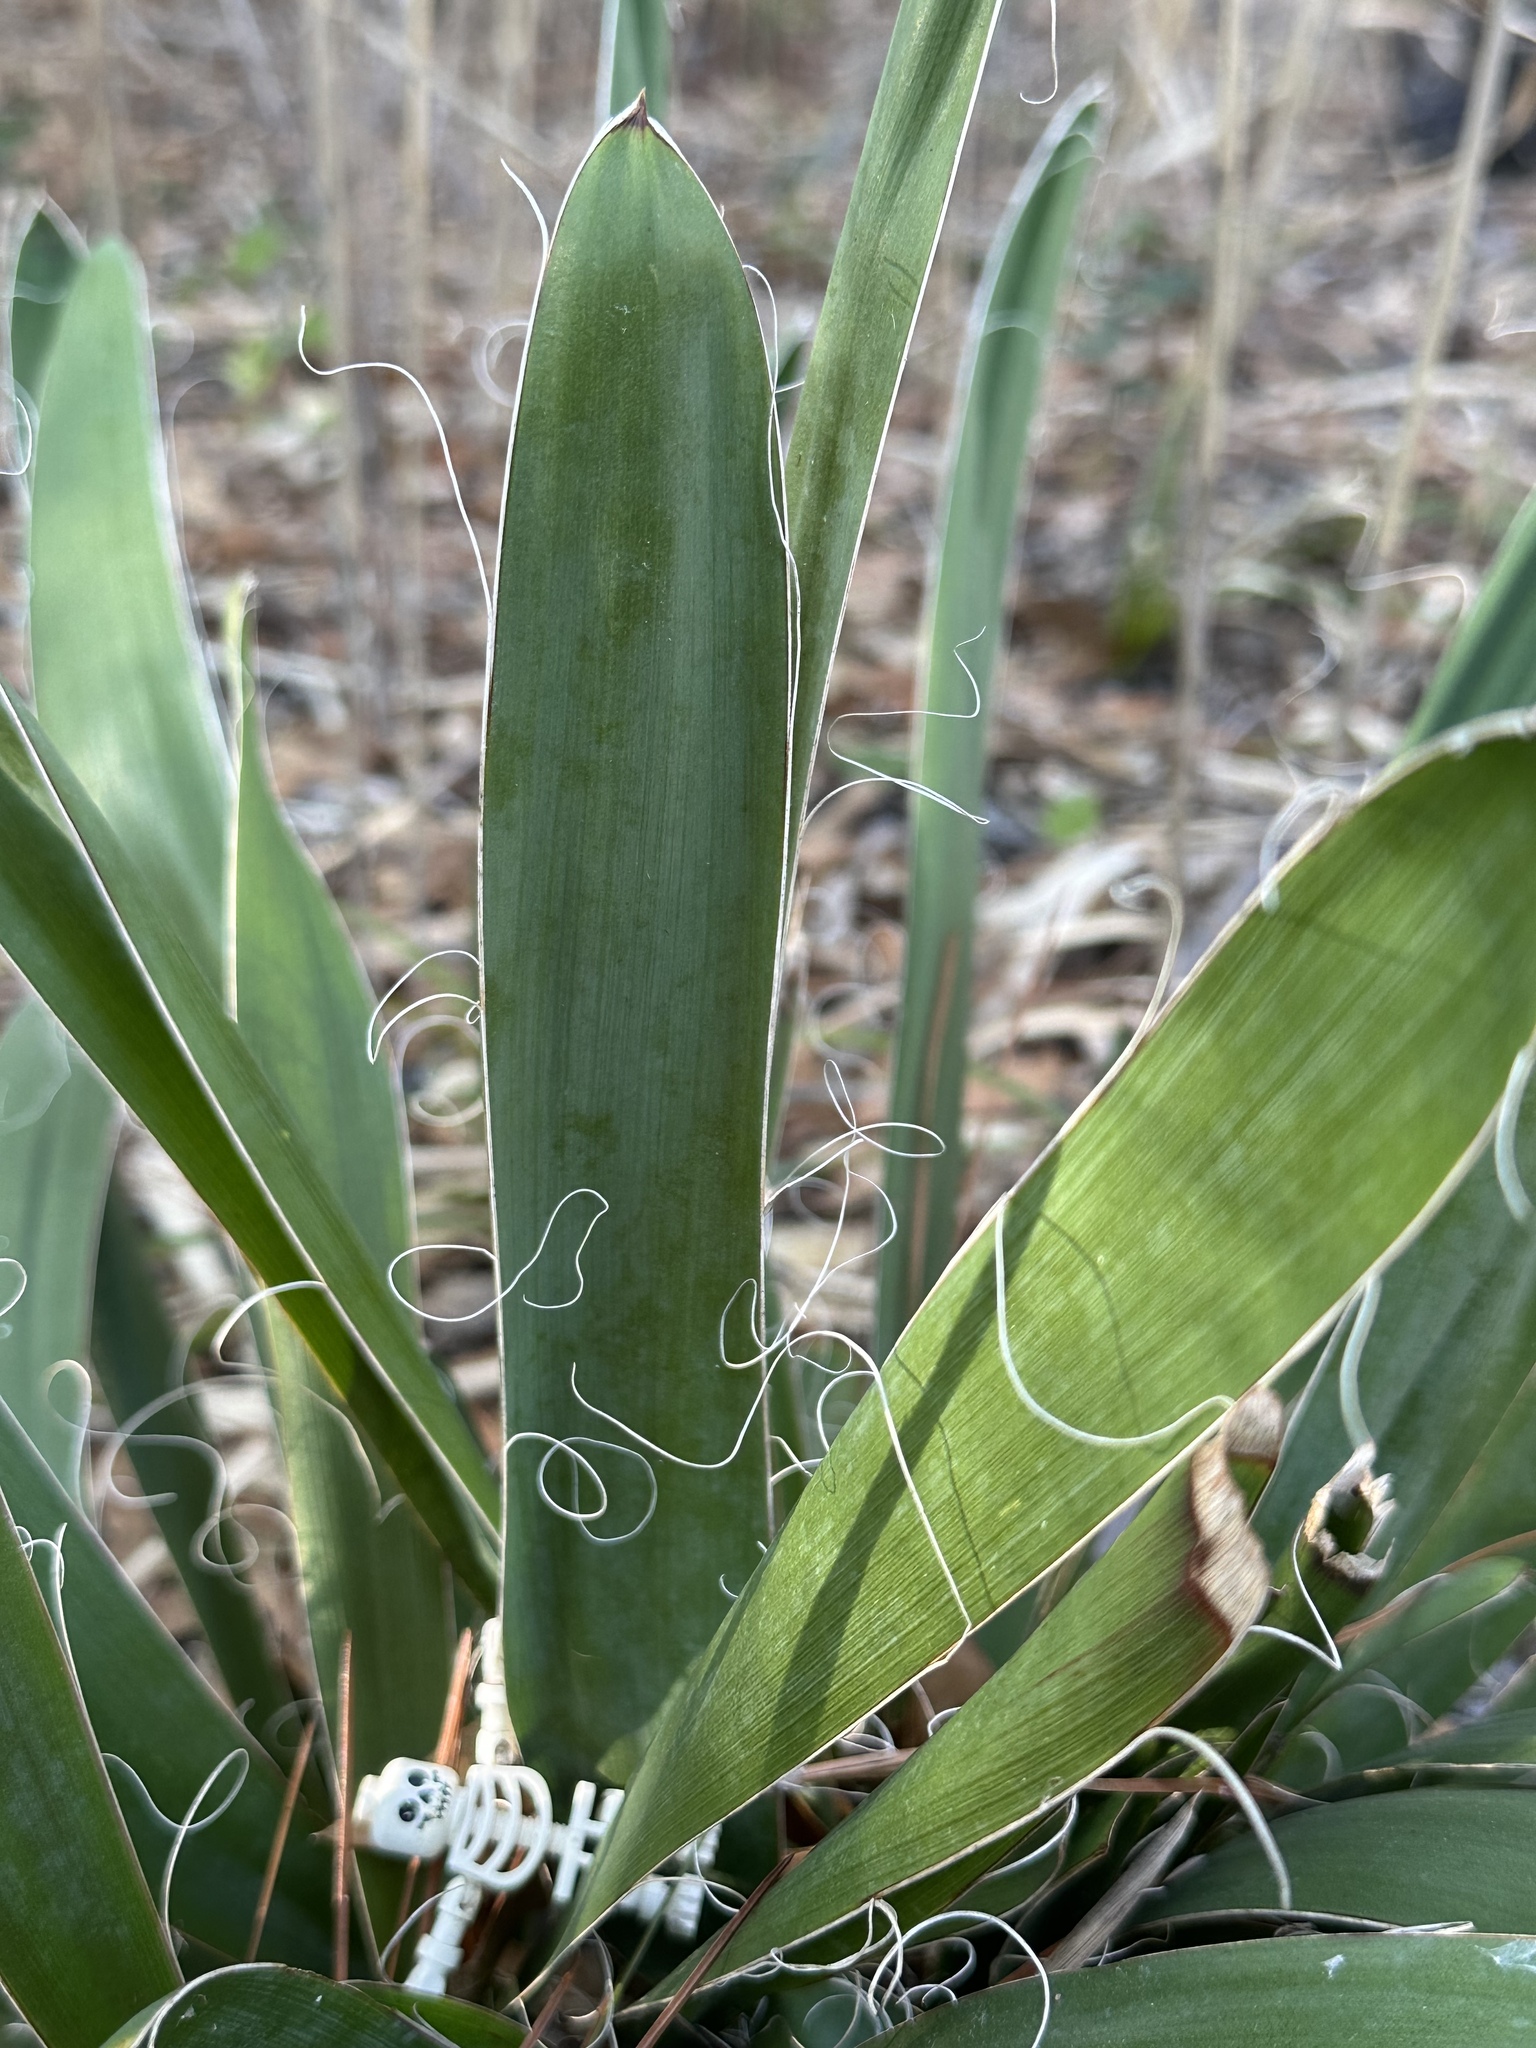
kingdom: Plantae
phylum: Tracheophyta
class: Liliopsida
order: Asparagales
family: Asparagaceae
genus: Yucca
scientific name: Yucca filamentosa
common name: Adam's-needle
